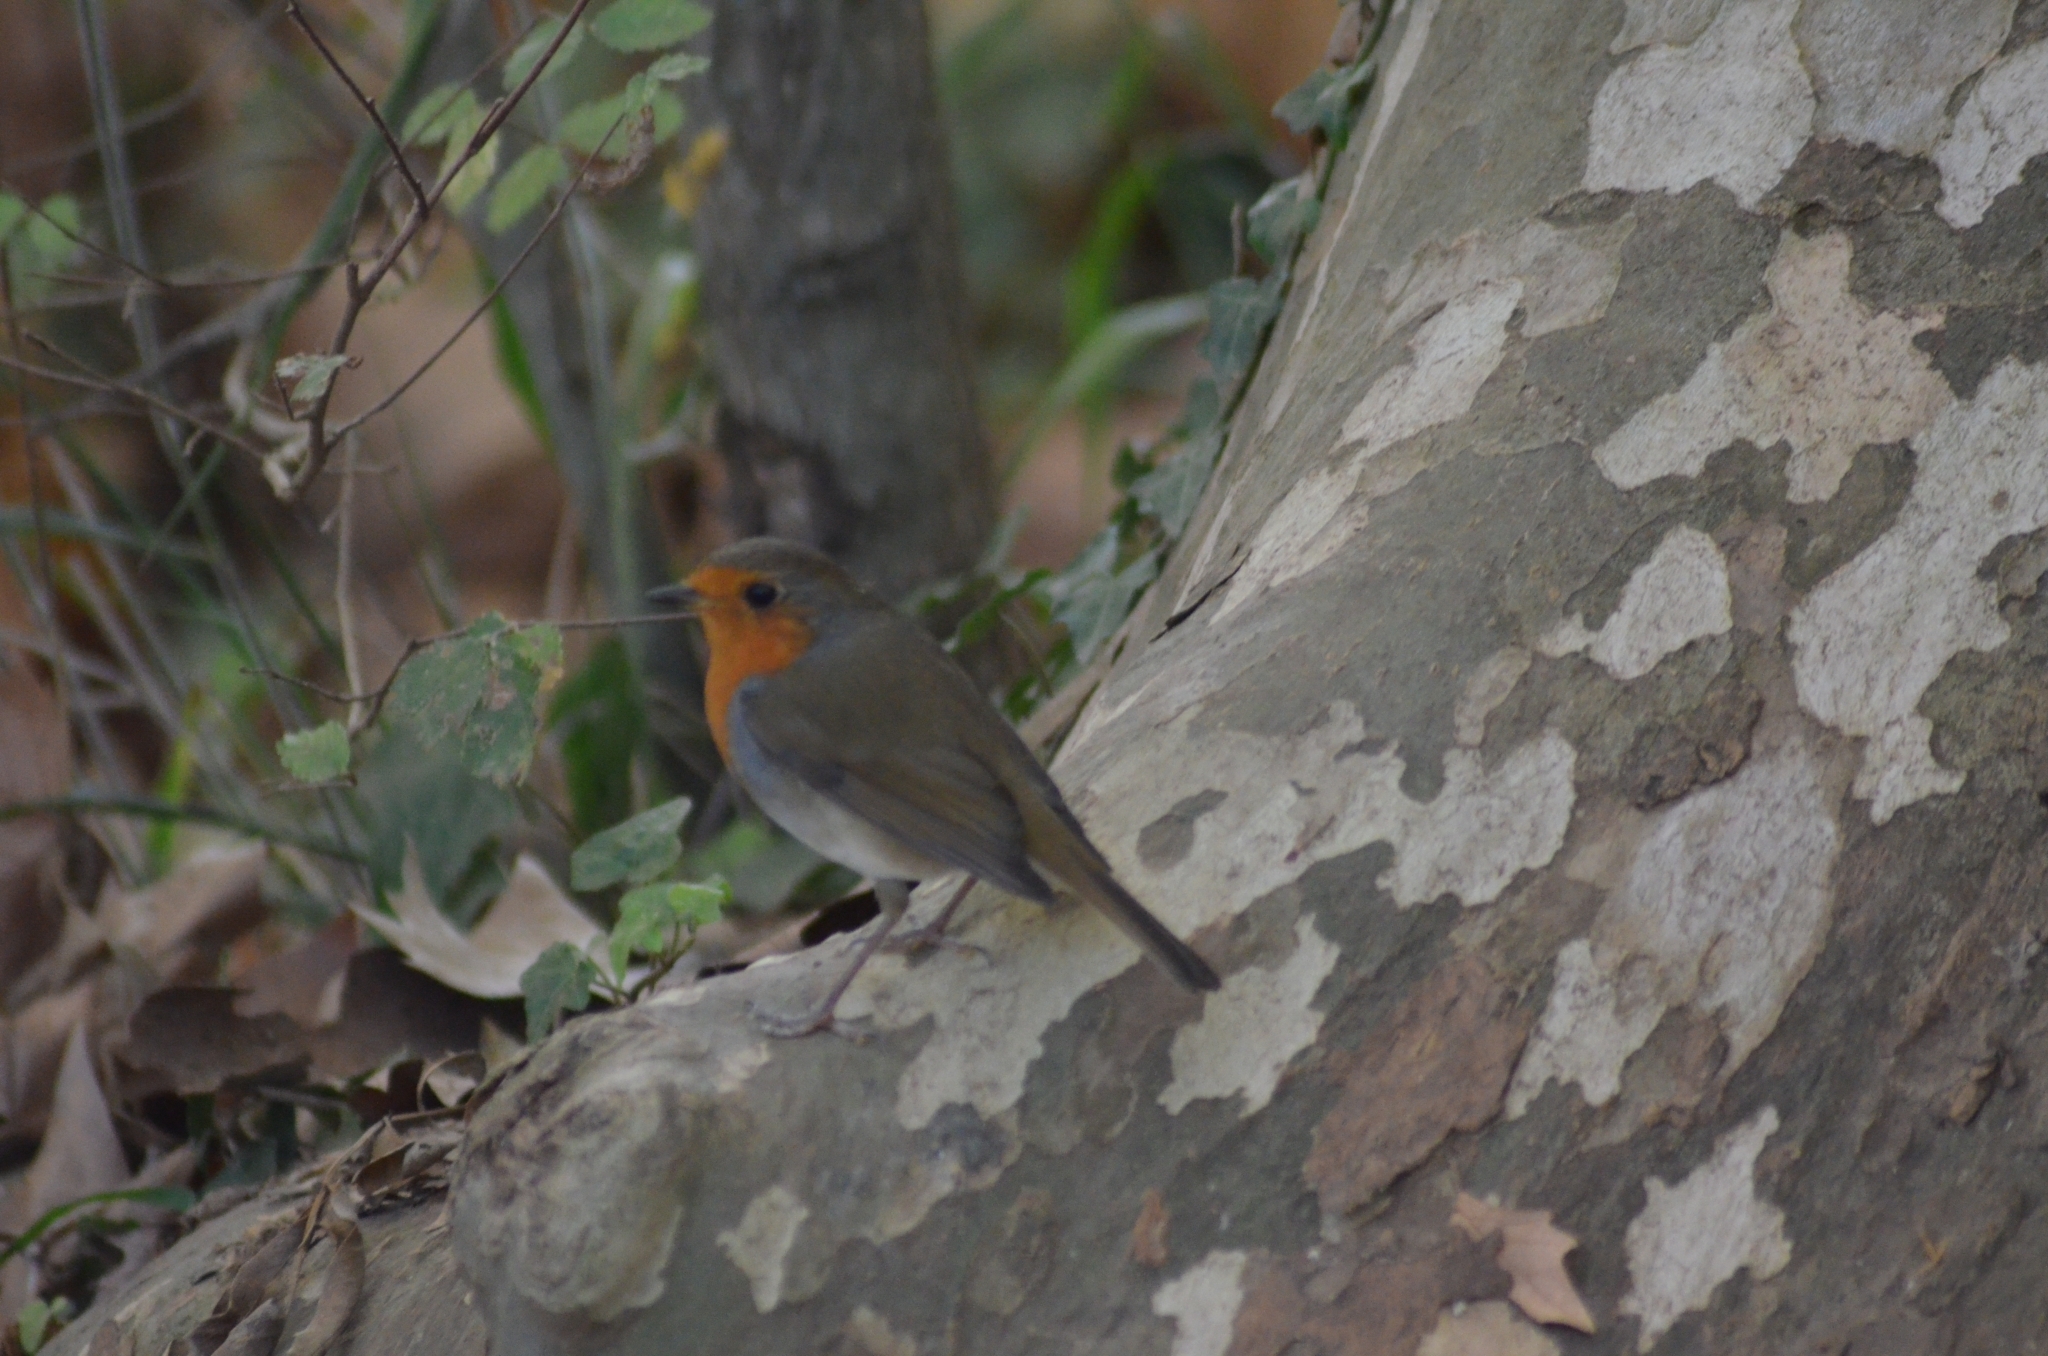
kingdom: Animalia
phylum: Chordata
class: Aves
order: Passeriformes
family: Muscicapidae
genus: Erithacus
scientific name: Erithacus rubecula
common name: European robin
